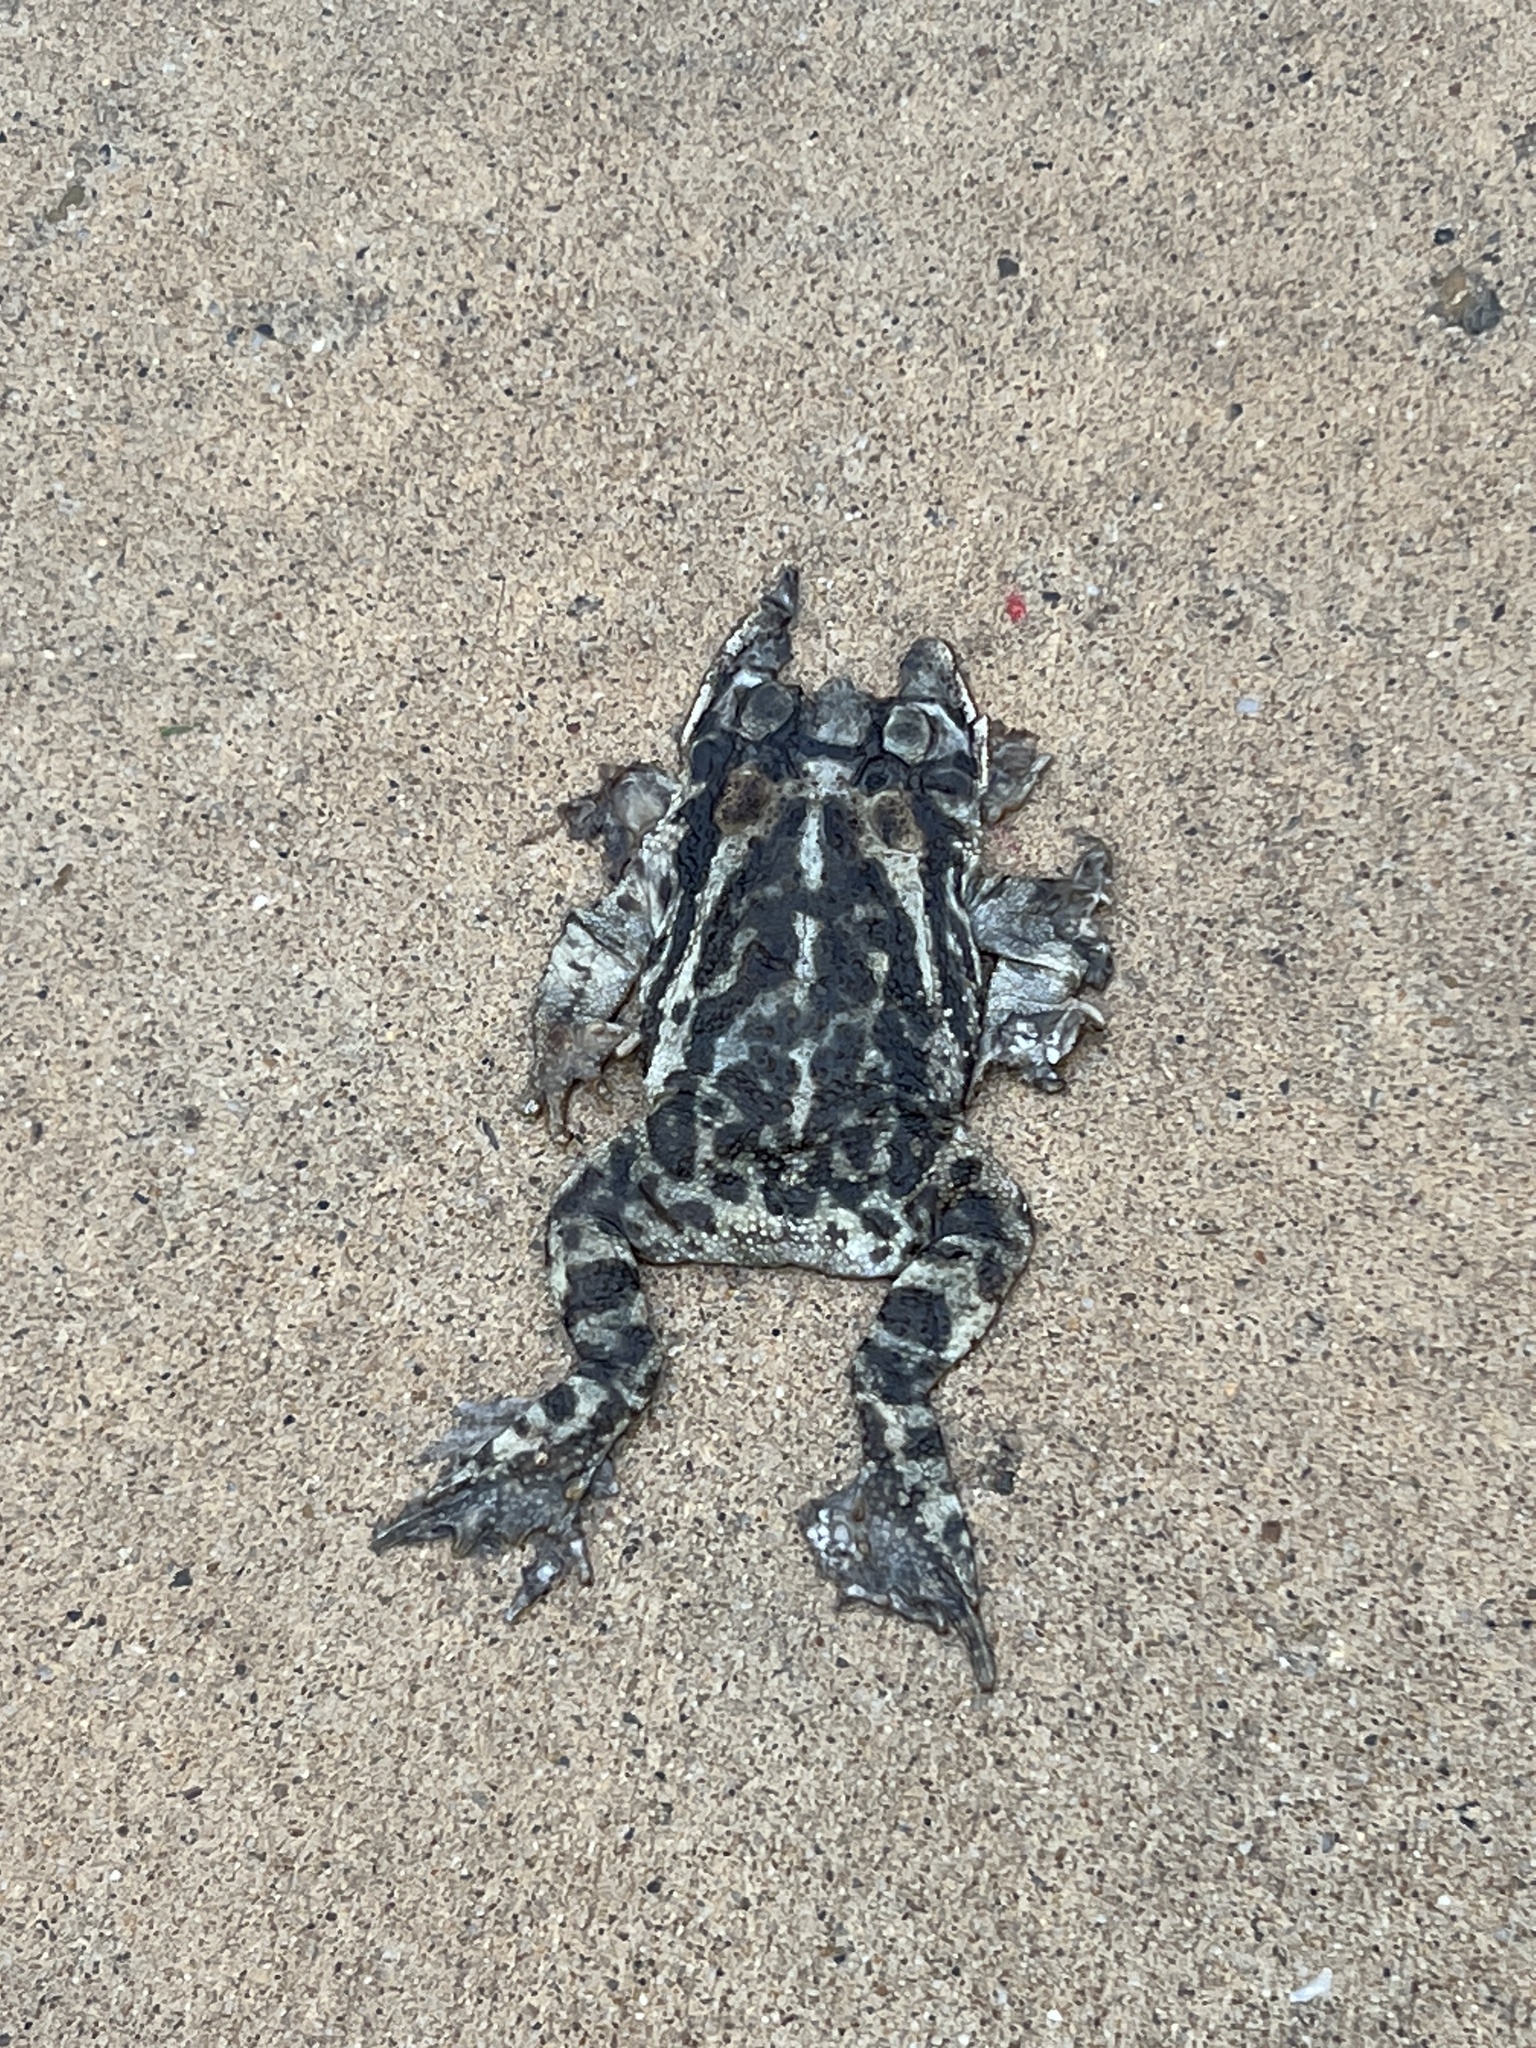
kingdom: Animalia
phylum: Chordata
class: Amphibia
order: Anura
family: Bufonidae
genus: Incilius
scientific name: Incilius nebulifer
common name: Gulf coast toad
